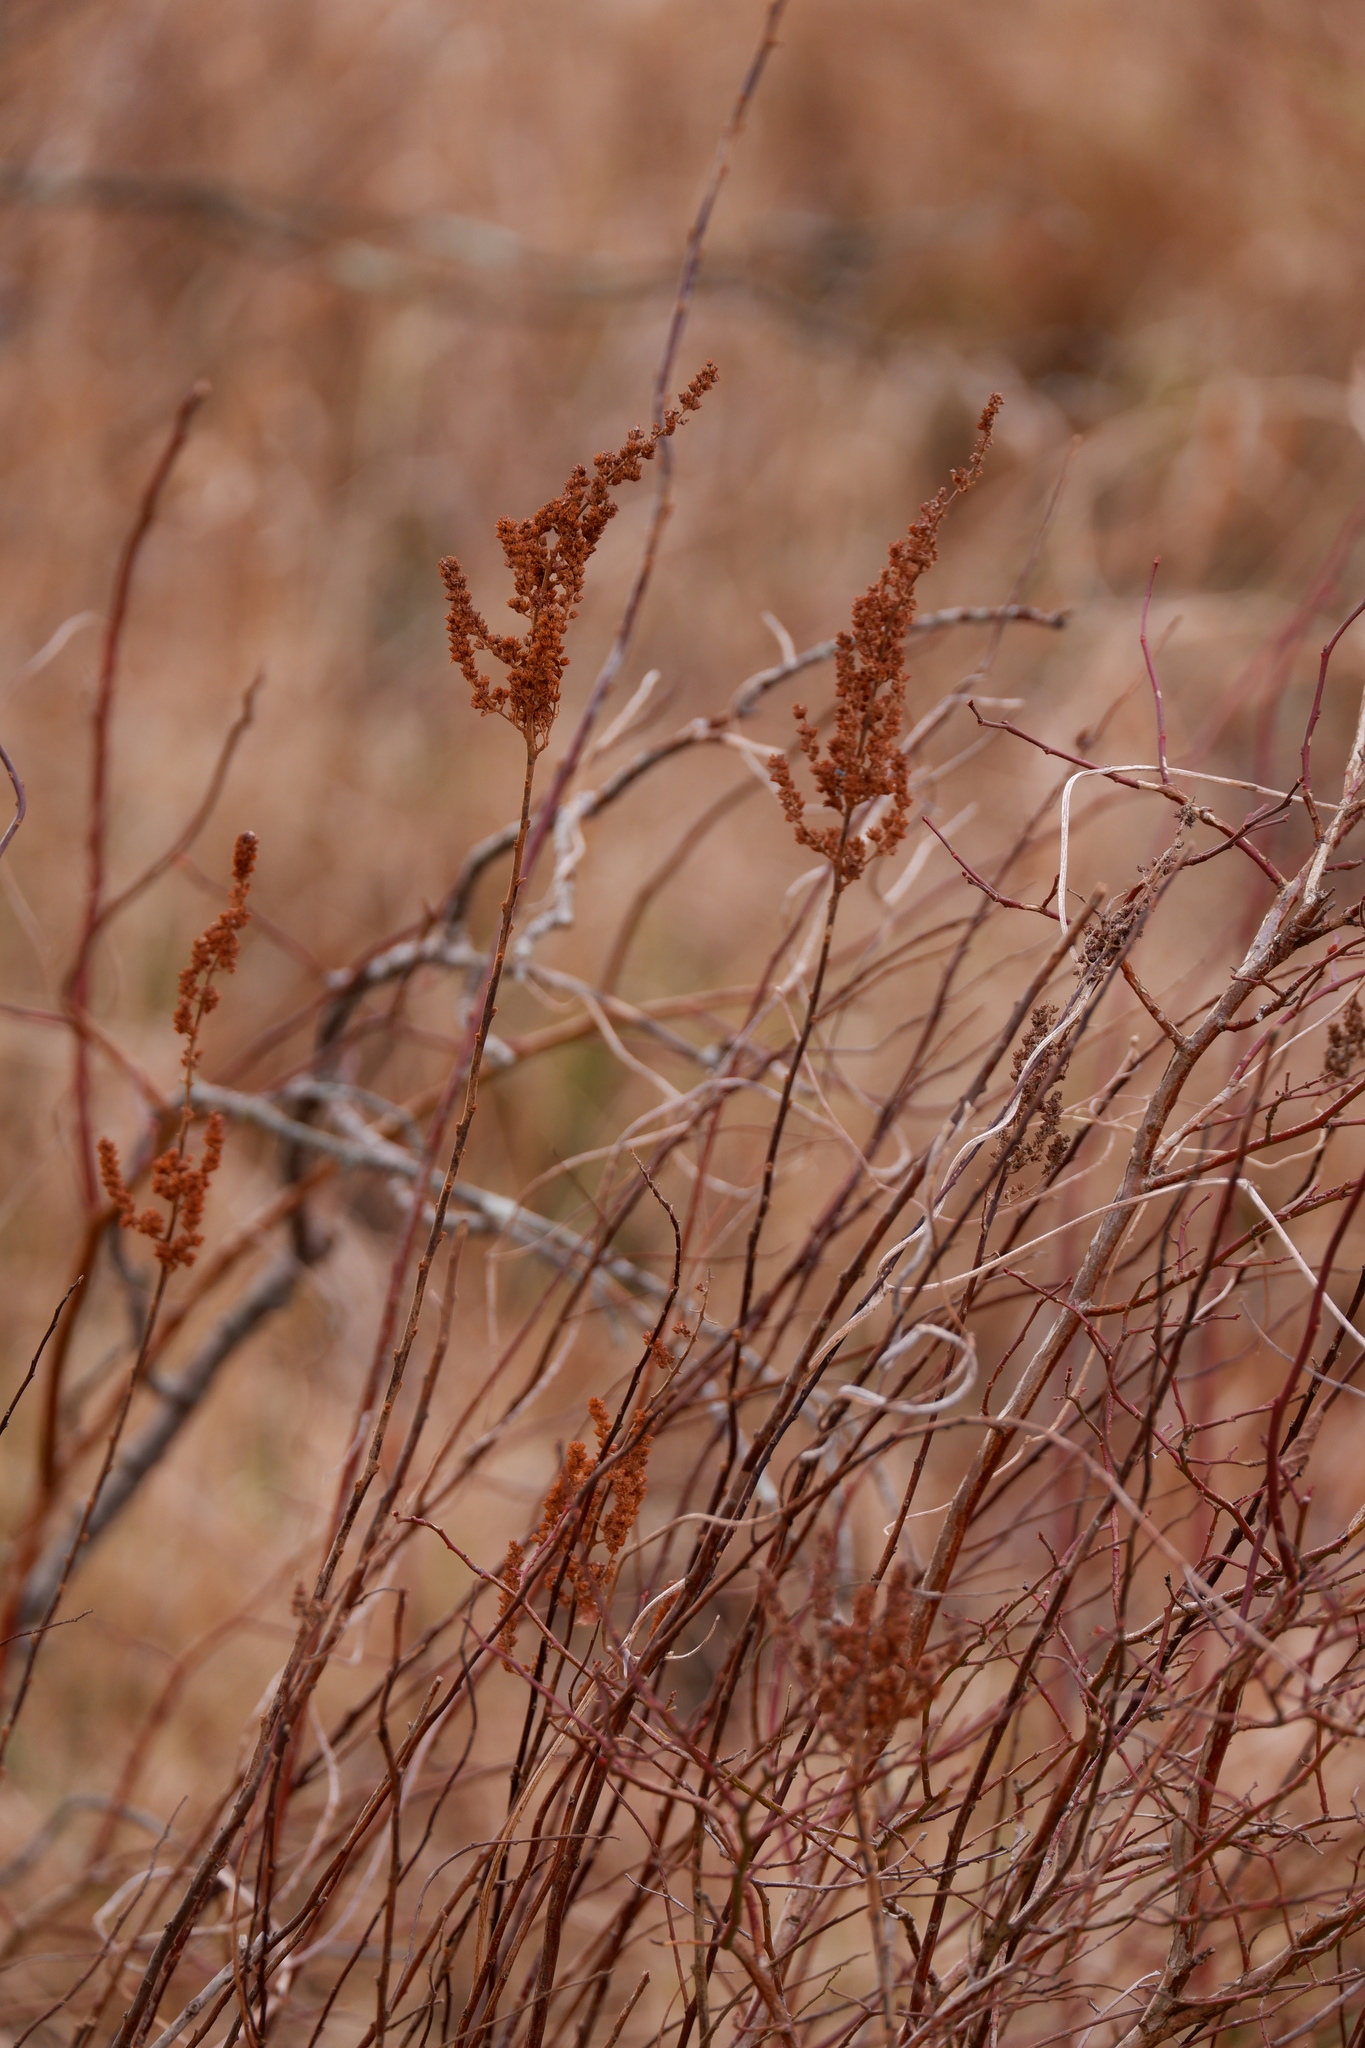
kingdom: Plantae
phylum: Tracheophyta
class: Magnoliopsida
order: Rosales
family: Rosaceae
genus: Spiraea
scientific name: Spiraea tomentosa
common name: Hardhack
